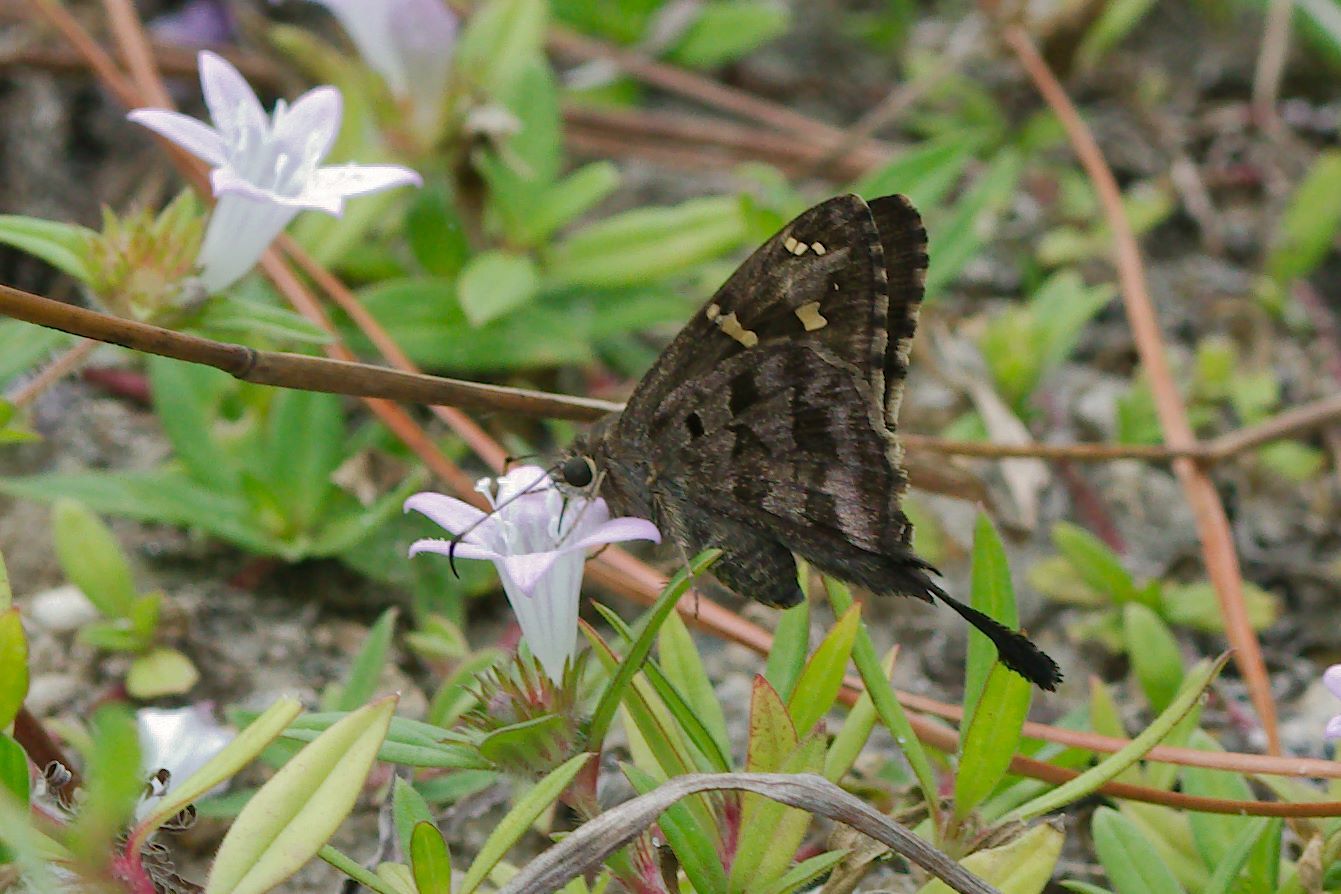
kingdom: Animalia
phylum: Arthropoda
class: Insecta
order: Lepidoptera
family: Hesperiidae
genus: Thorybes
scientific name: Thorybes
